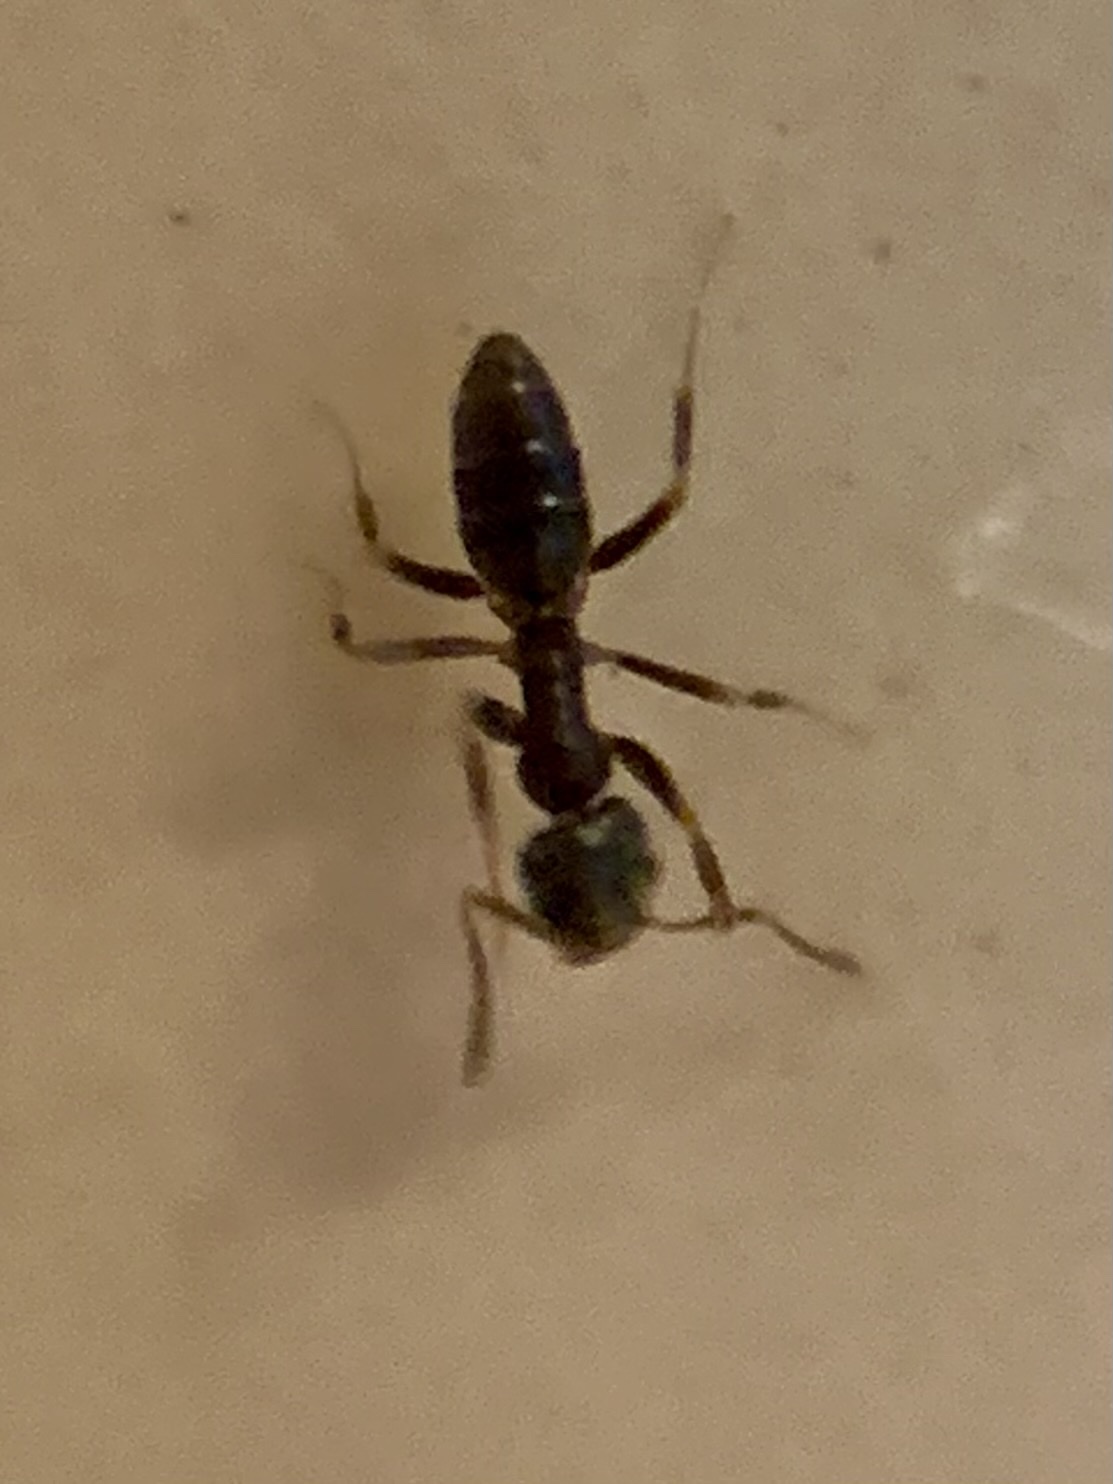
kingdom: Animalia
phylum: Arthropoda
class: Insecta
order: Hymenoptera
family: Formicidae
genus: Tapinoma
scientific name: Tapinoma sessile
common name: Odorous house ant
